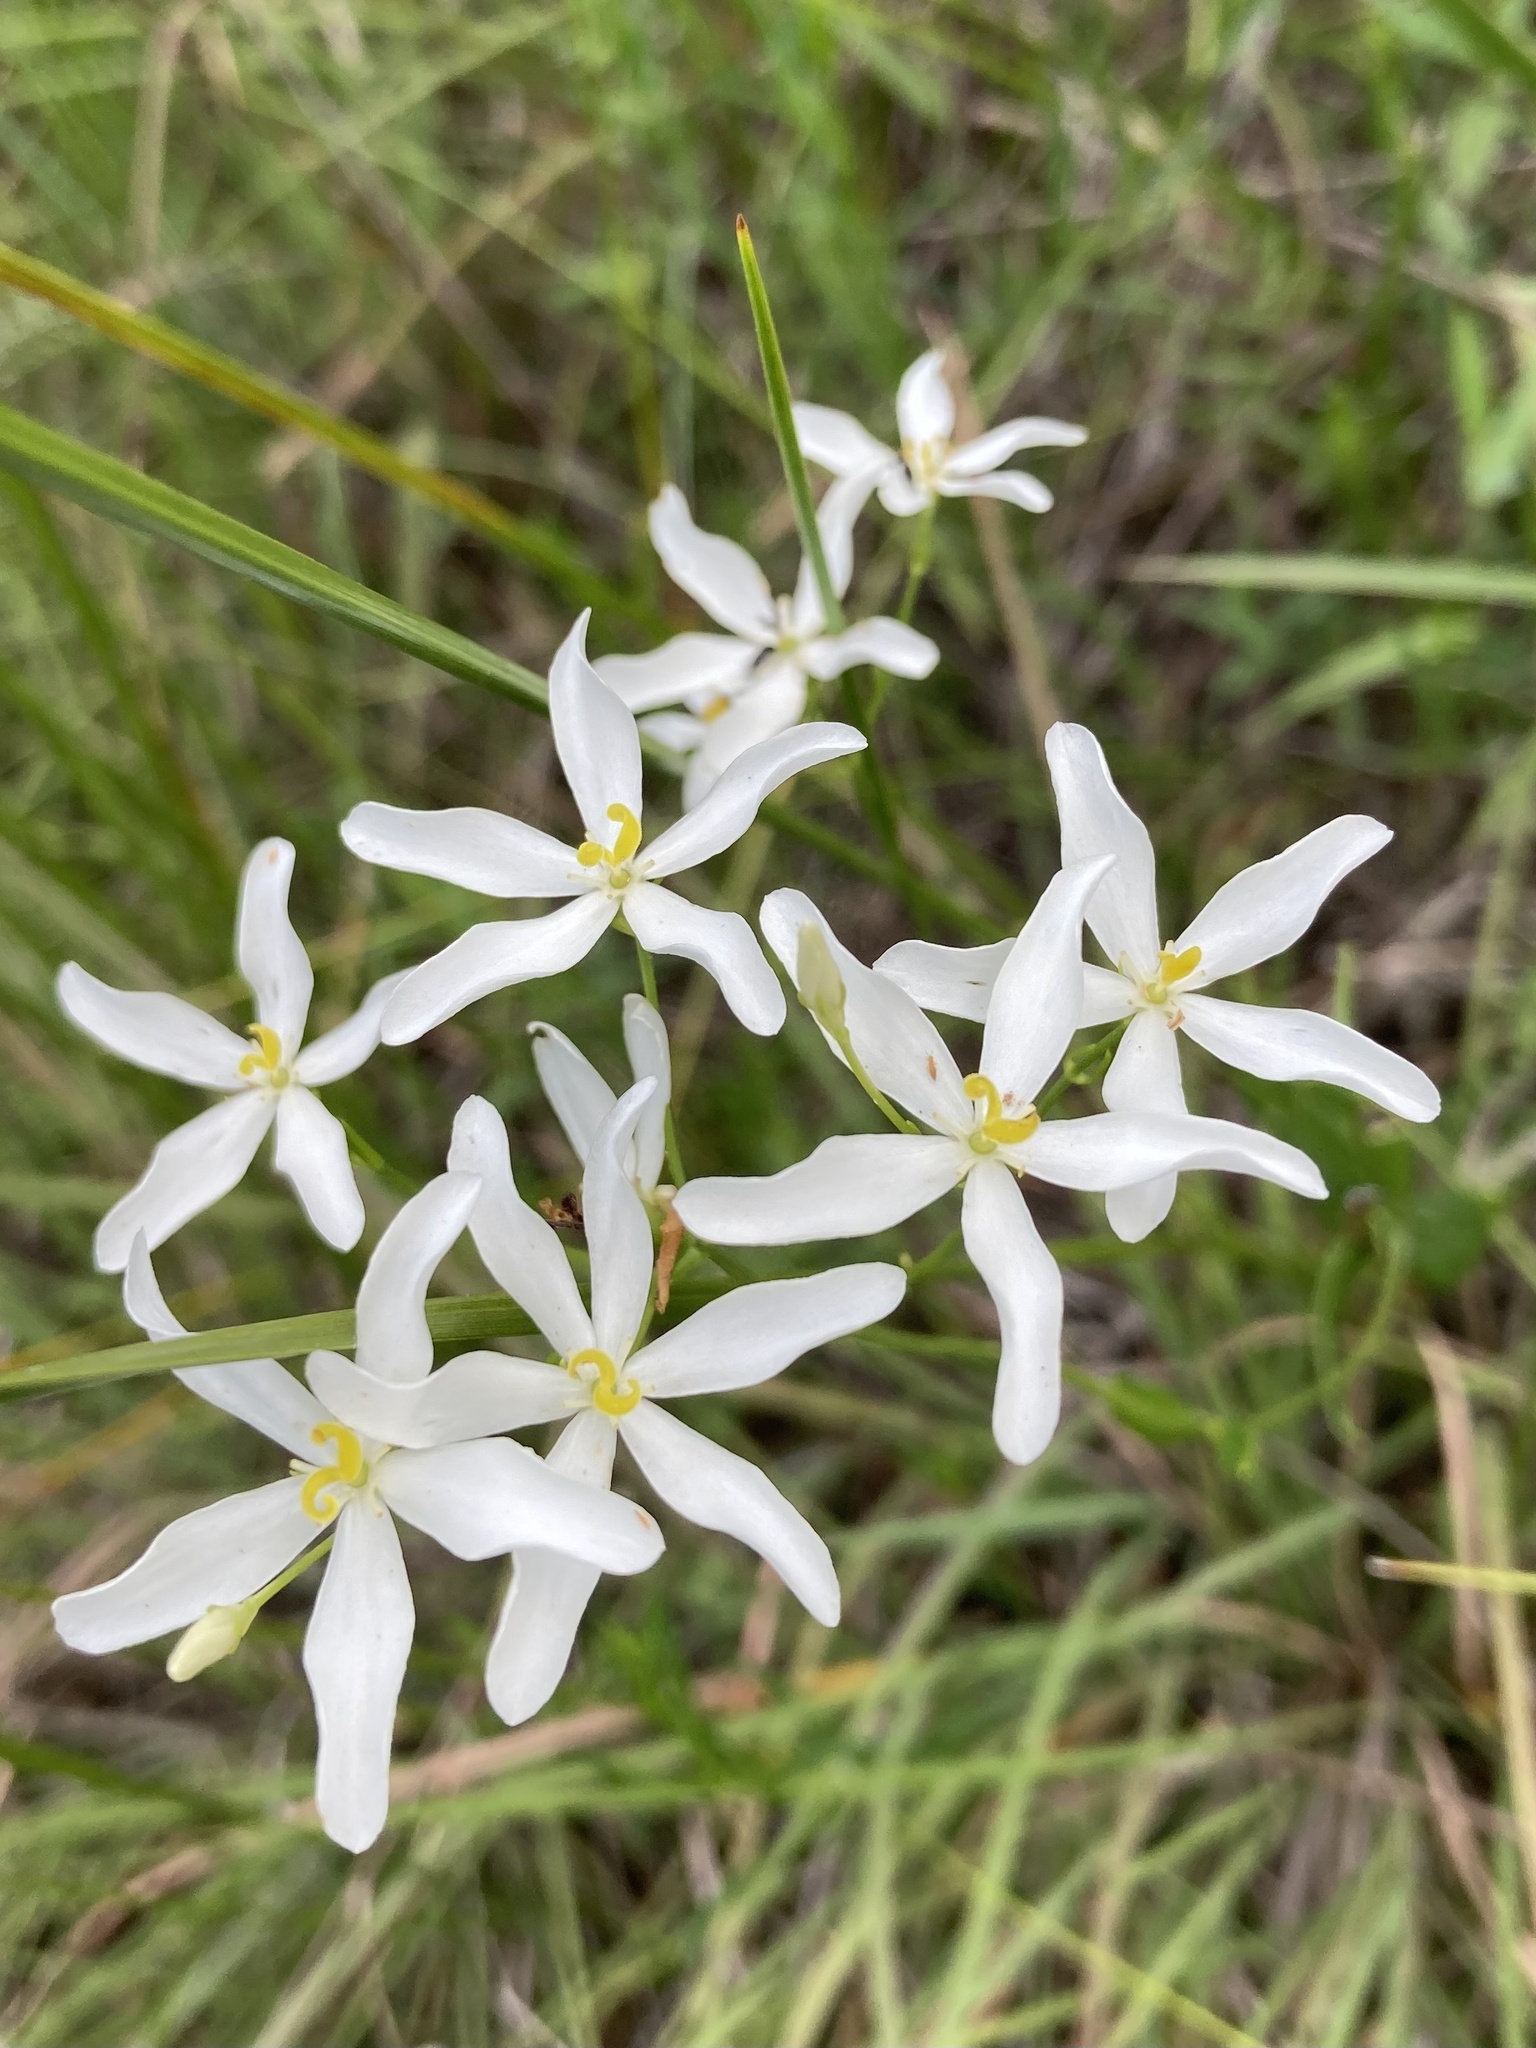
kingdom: Plantae
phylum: Tracheophyta
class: Magnoliopsida
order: Gentianales
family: Gentianaceae
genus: Sabatia
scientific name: Sabatia difformis
